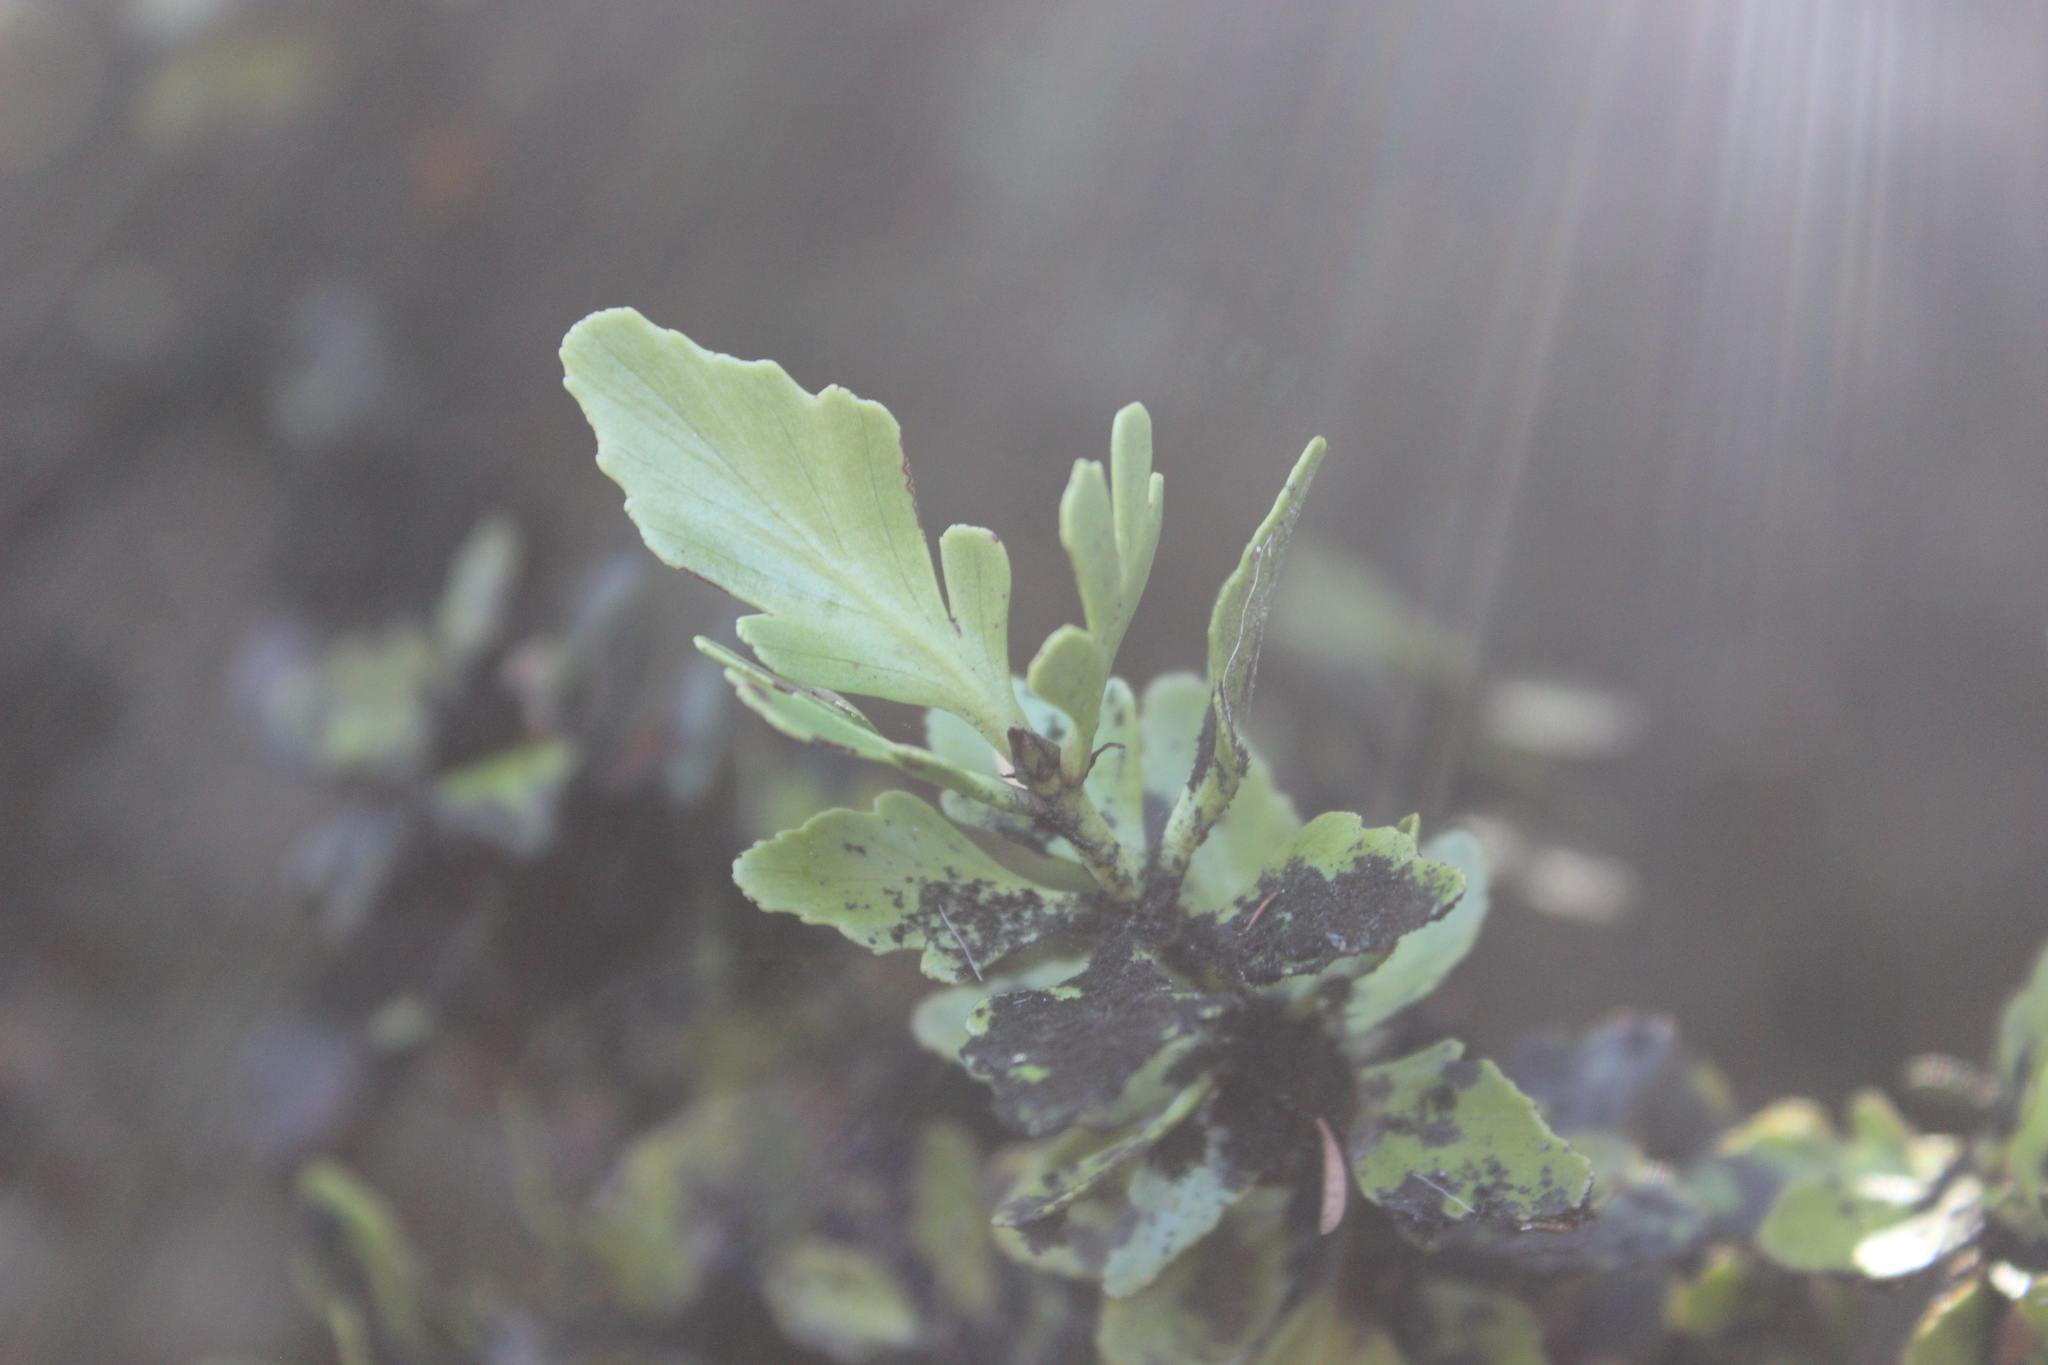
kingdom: Plantae
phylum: Tracheophyta
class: Pinopsida
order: Pinales
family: Phyllocladaceae
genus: Phyllocladus
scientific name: Phyllocladus trichomanoides
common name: Celery pine
